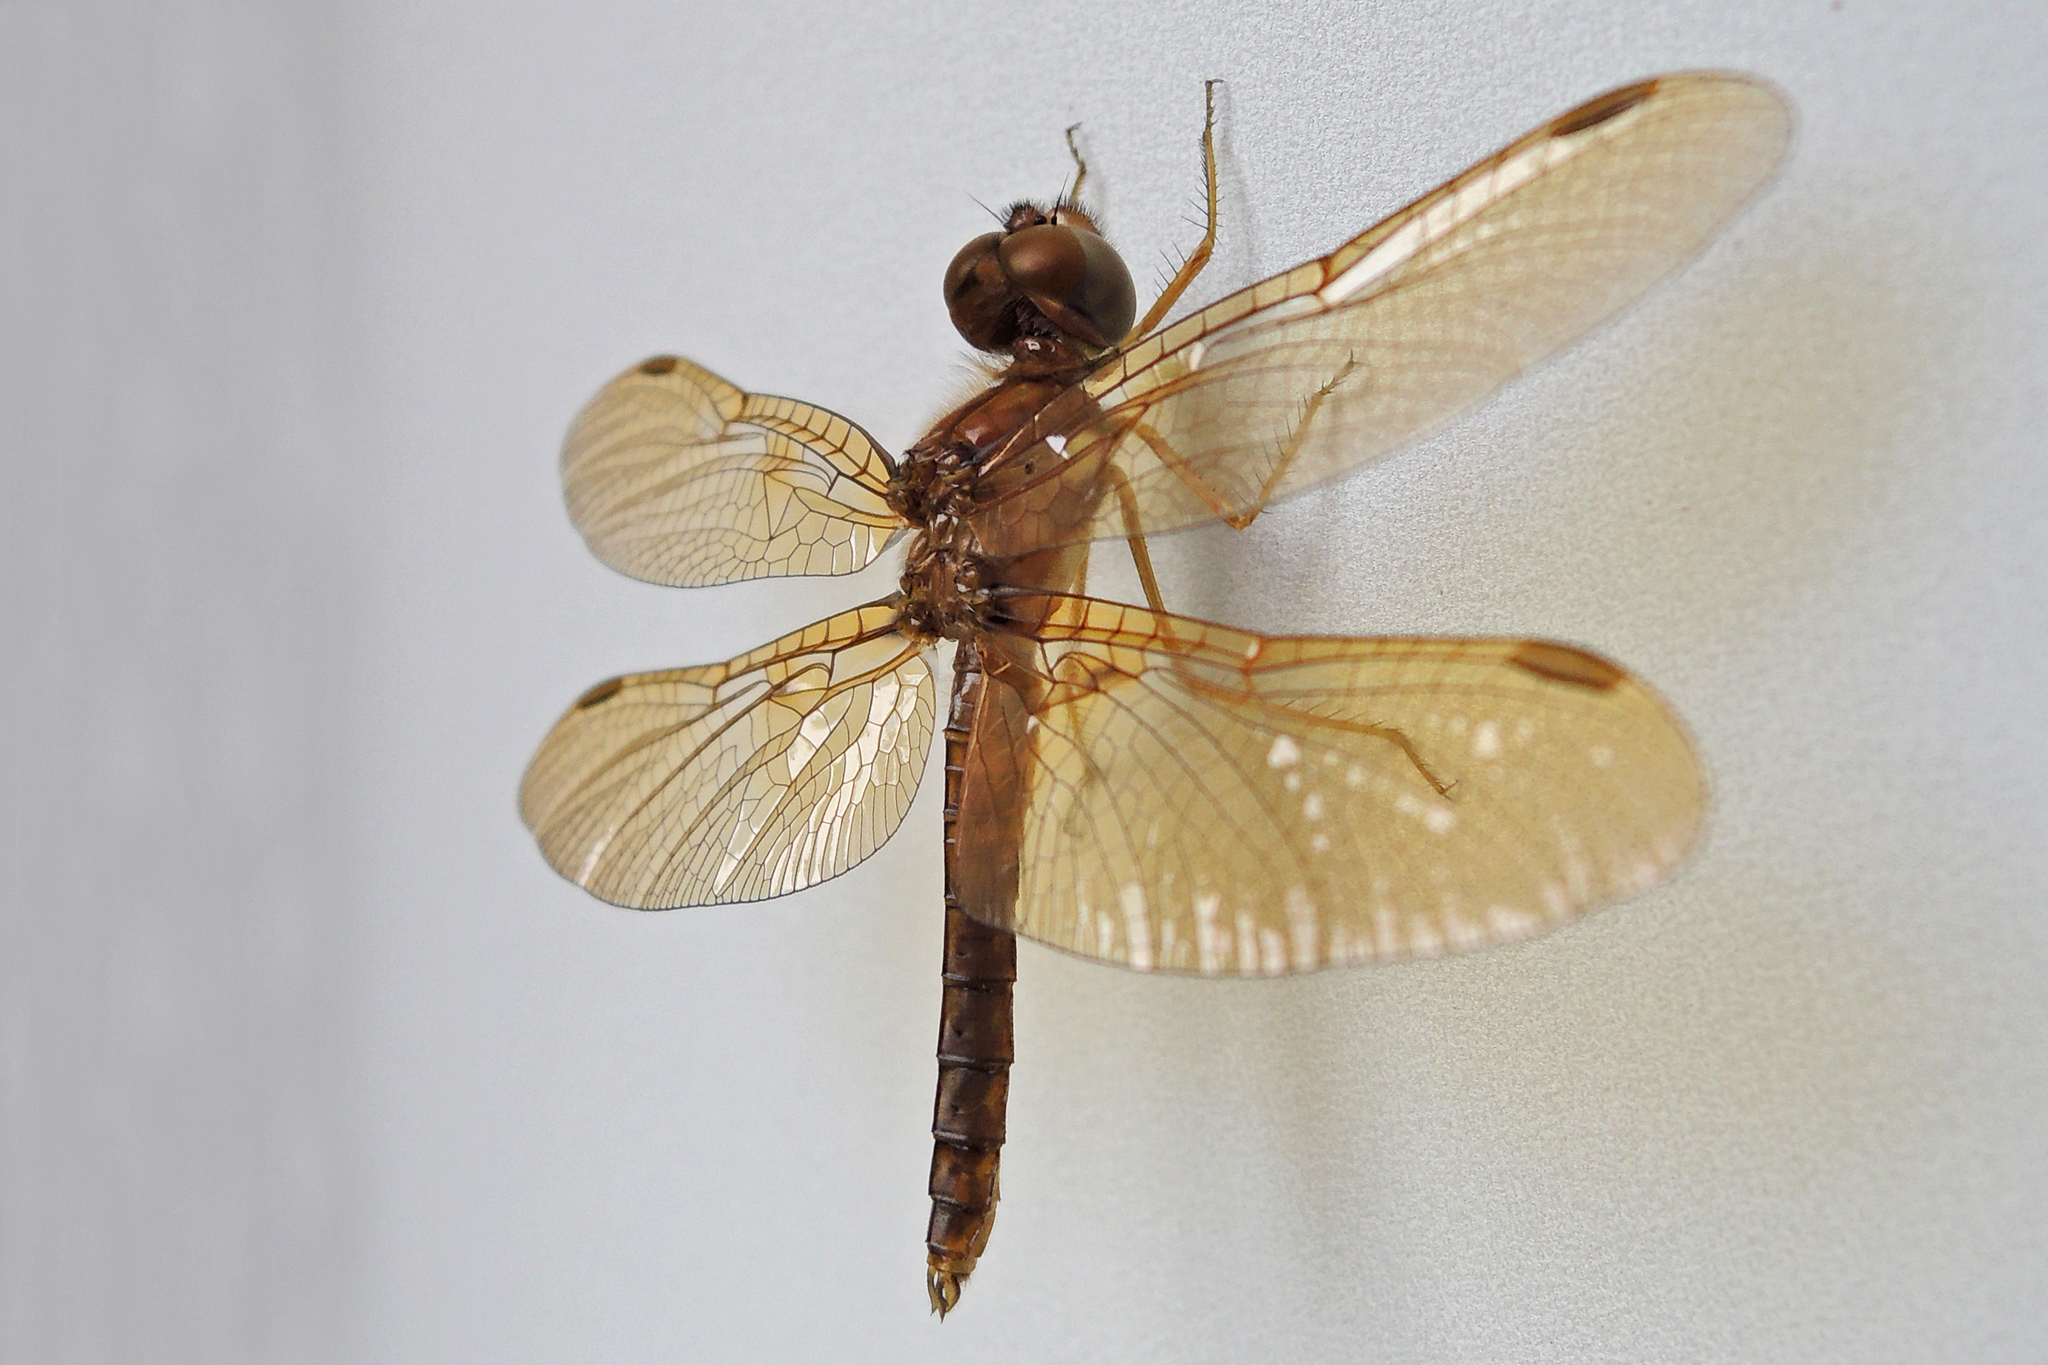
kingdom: Animalia
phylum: Arthropoda
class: Insecta
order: Odonata
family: Libellulidae
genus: Perithemis
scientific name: Perithemis tenera
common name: Eastern amberwing
